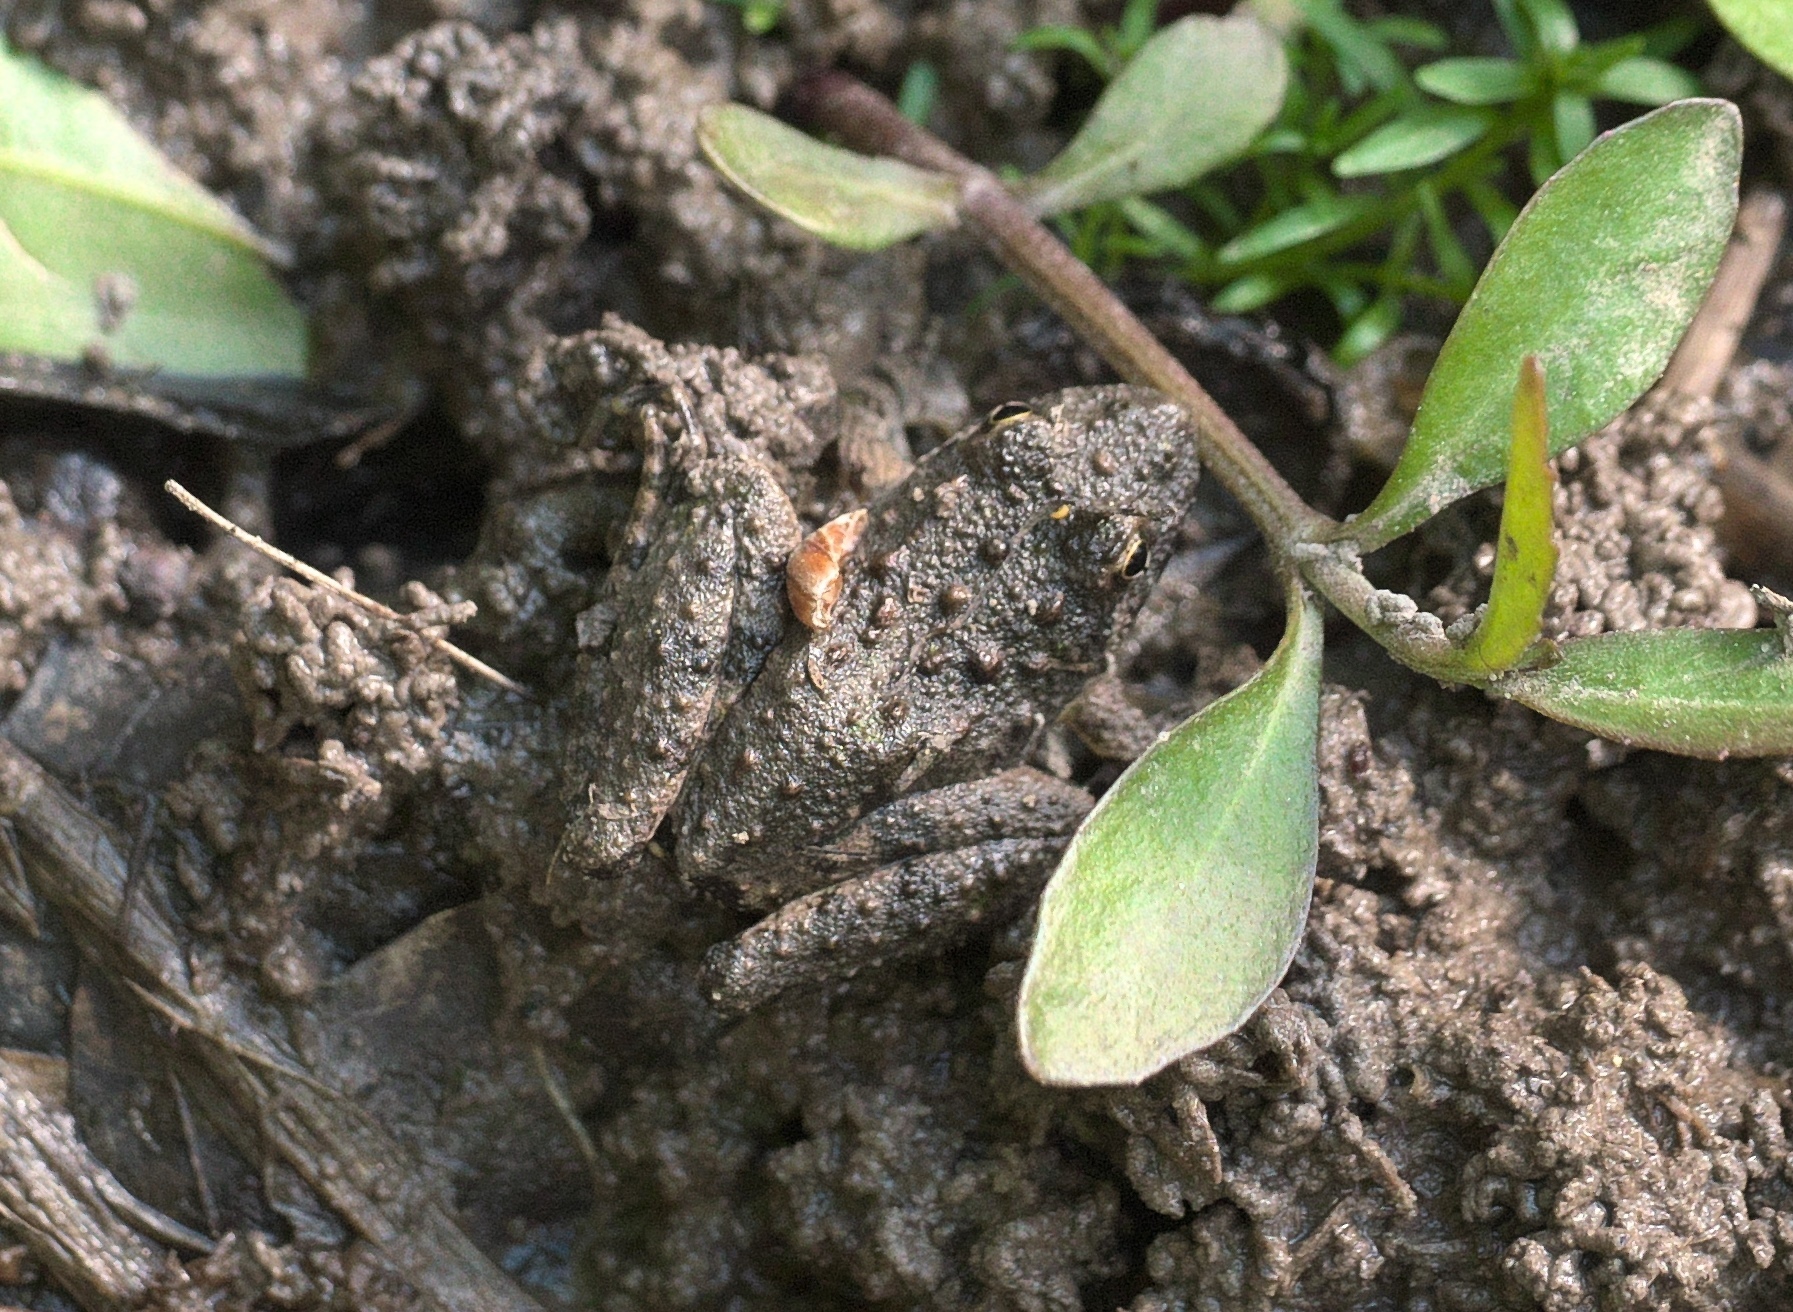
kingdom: Animalia
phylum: Chordata
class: Amphibia
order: Anura
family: Hylidae
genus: Acris
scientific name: Acris blanchardi
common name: Blanchard's cricket frog
